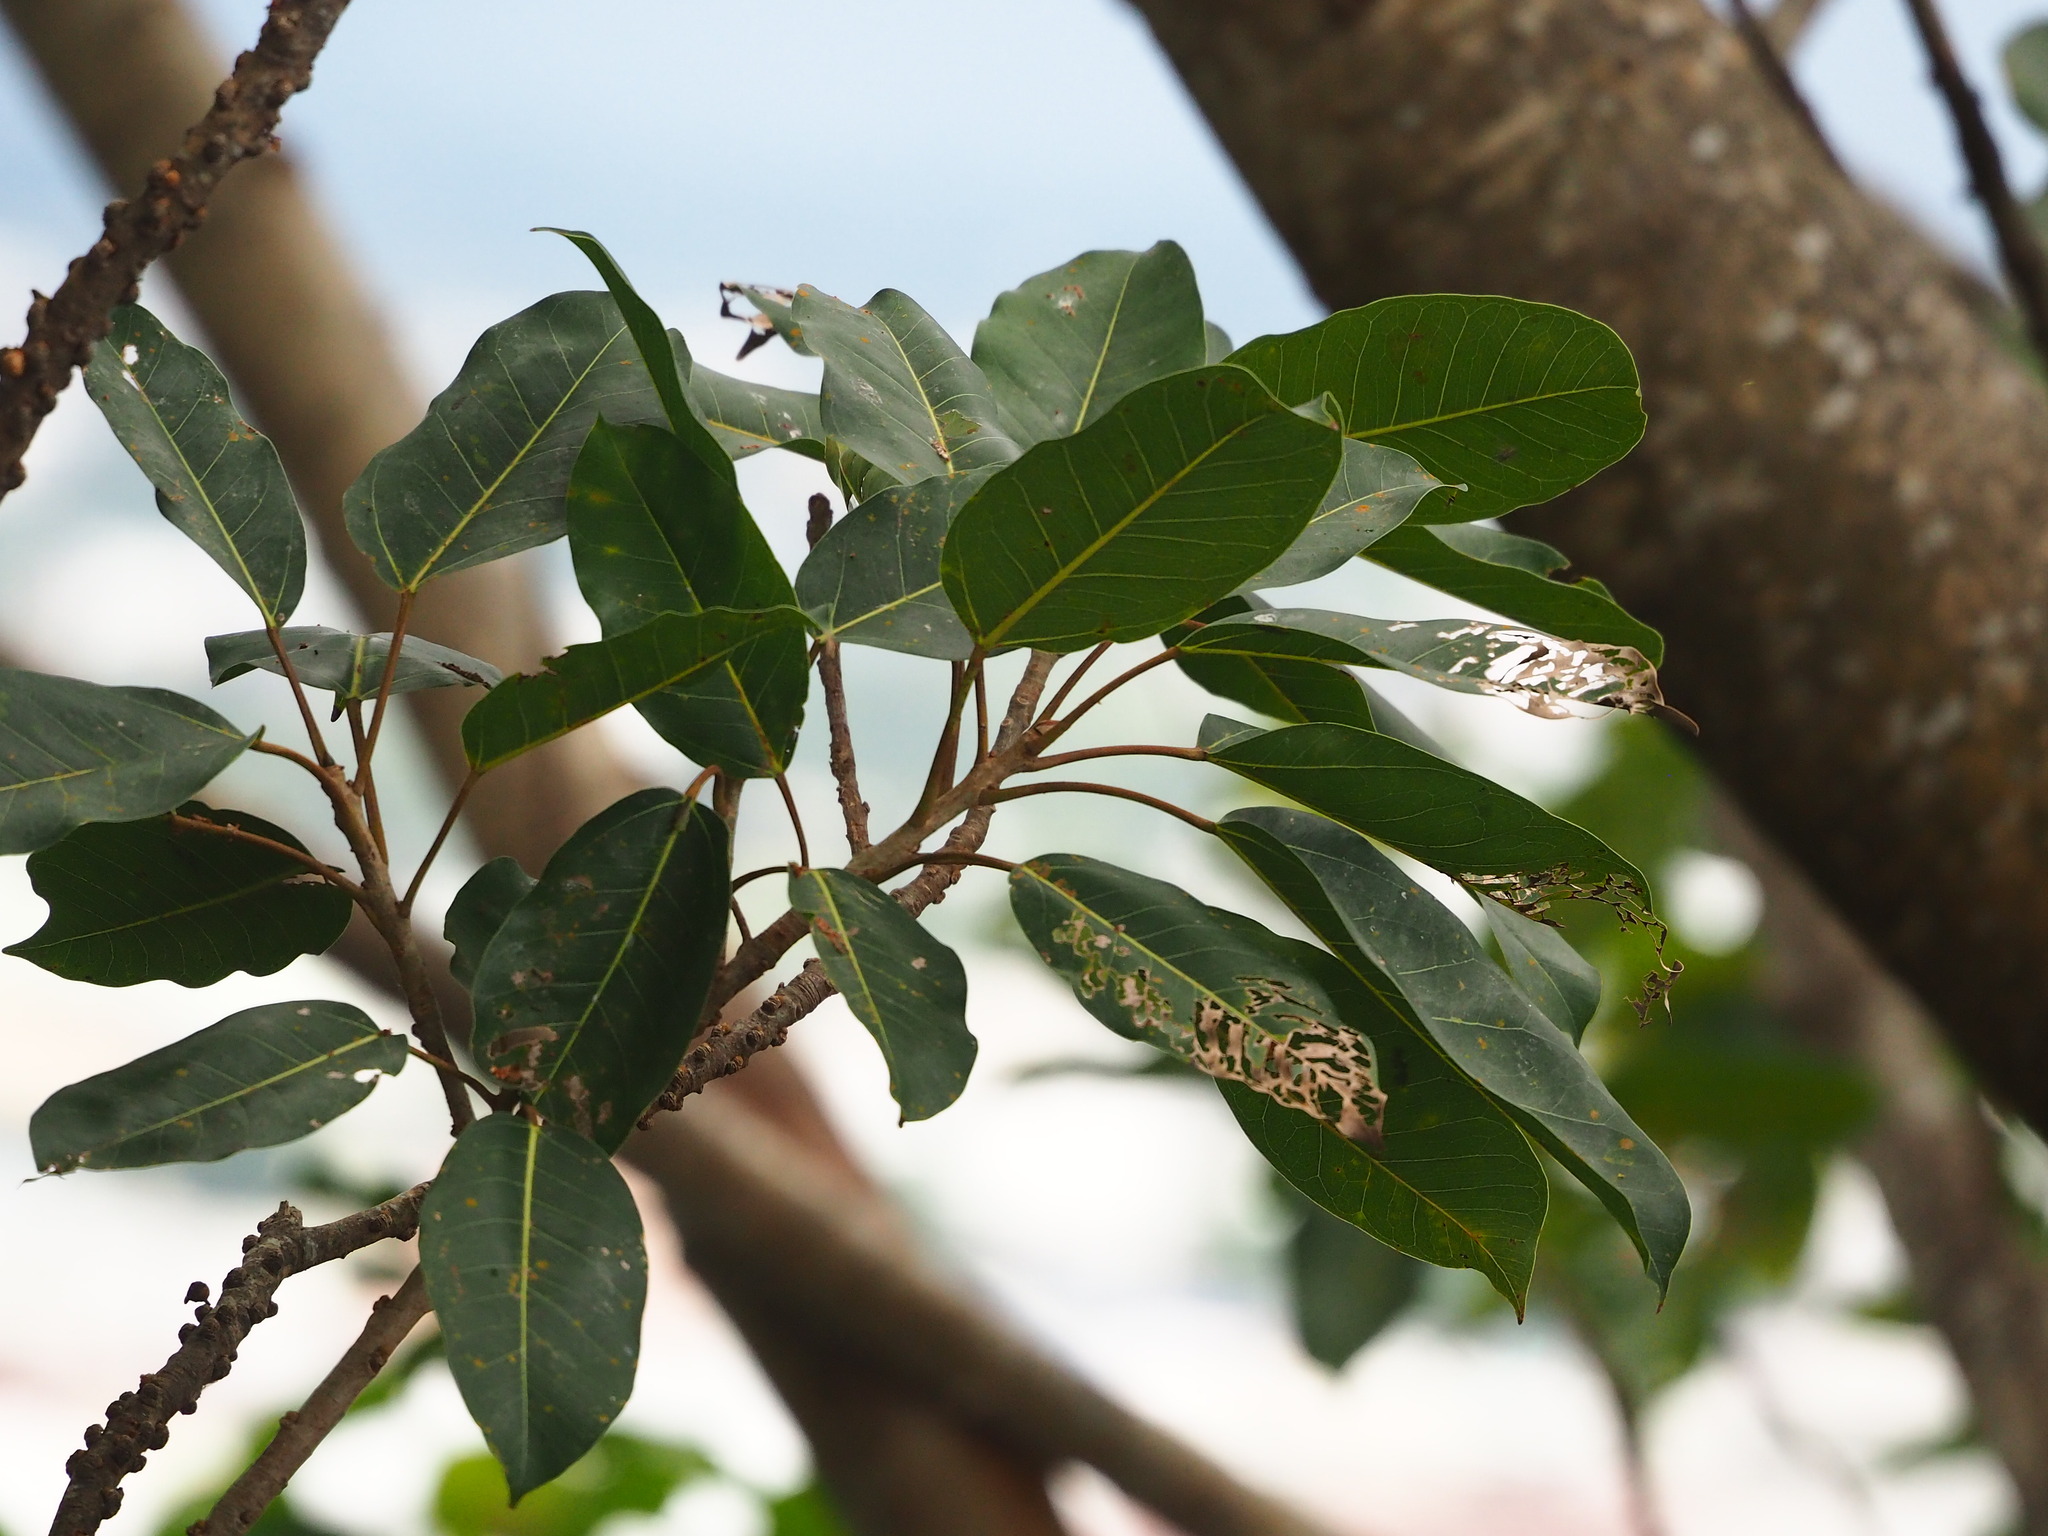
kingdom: Plantae
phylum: Tracheophyta
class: Magnoliopsida
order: Rosales
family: Moraceae
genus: Ficus
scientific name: Ficus subpisocarpa
